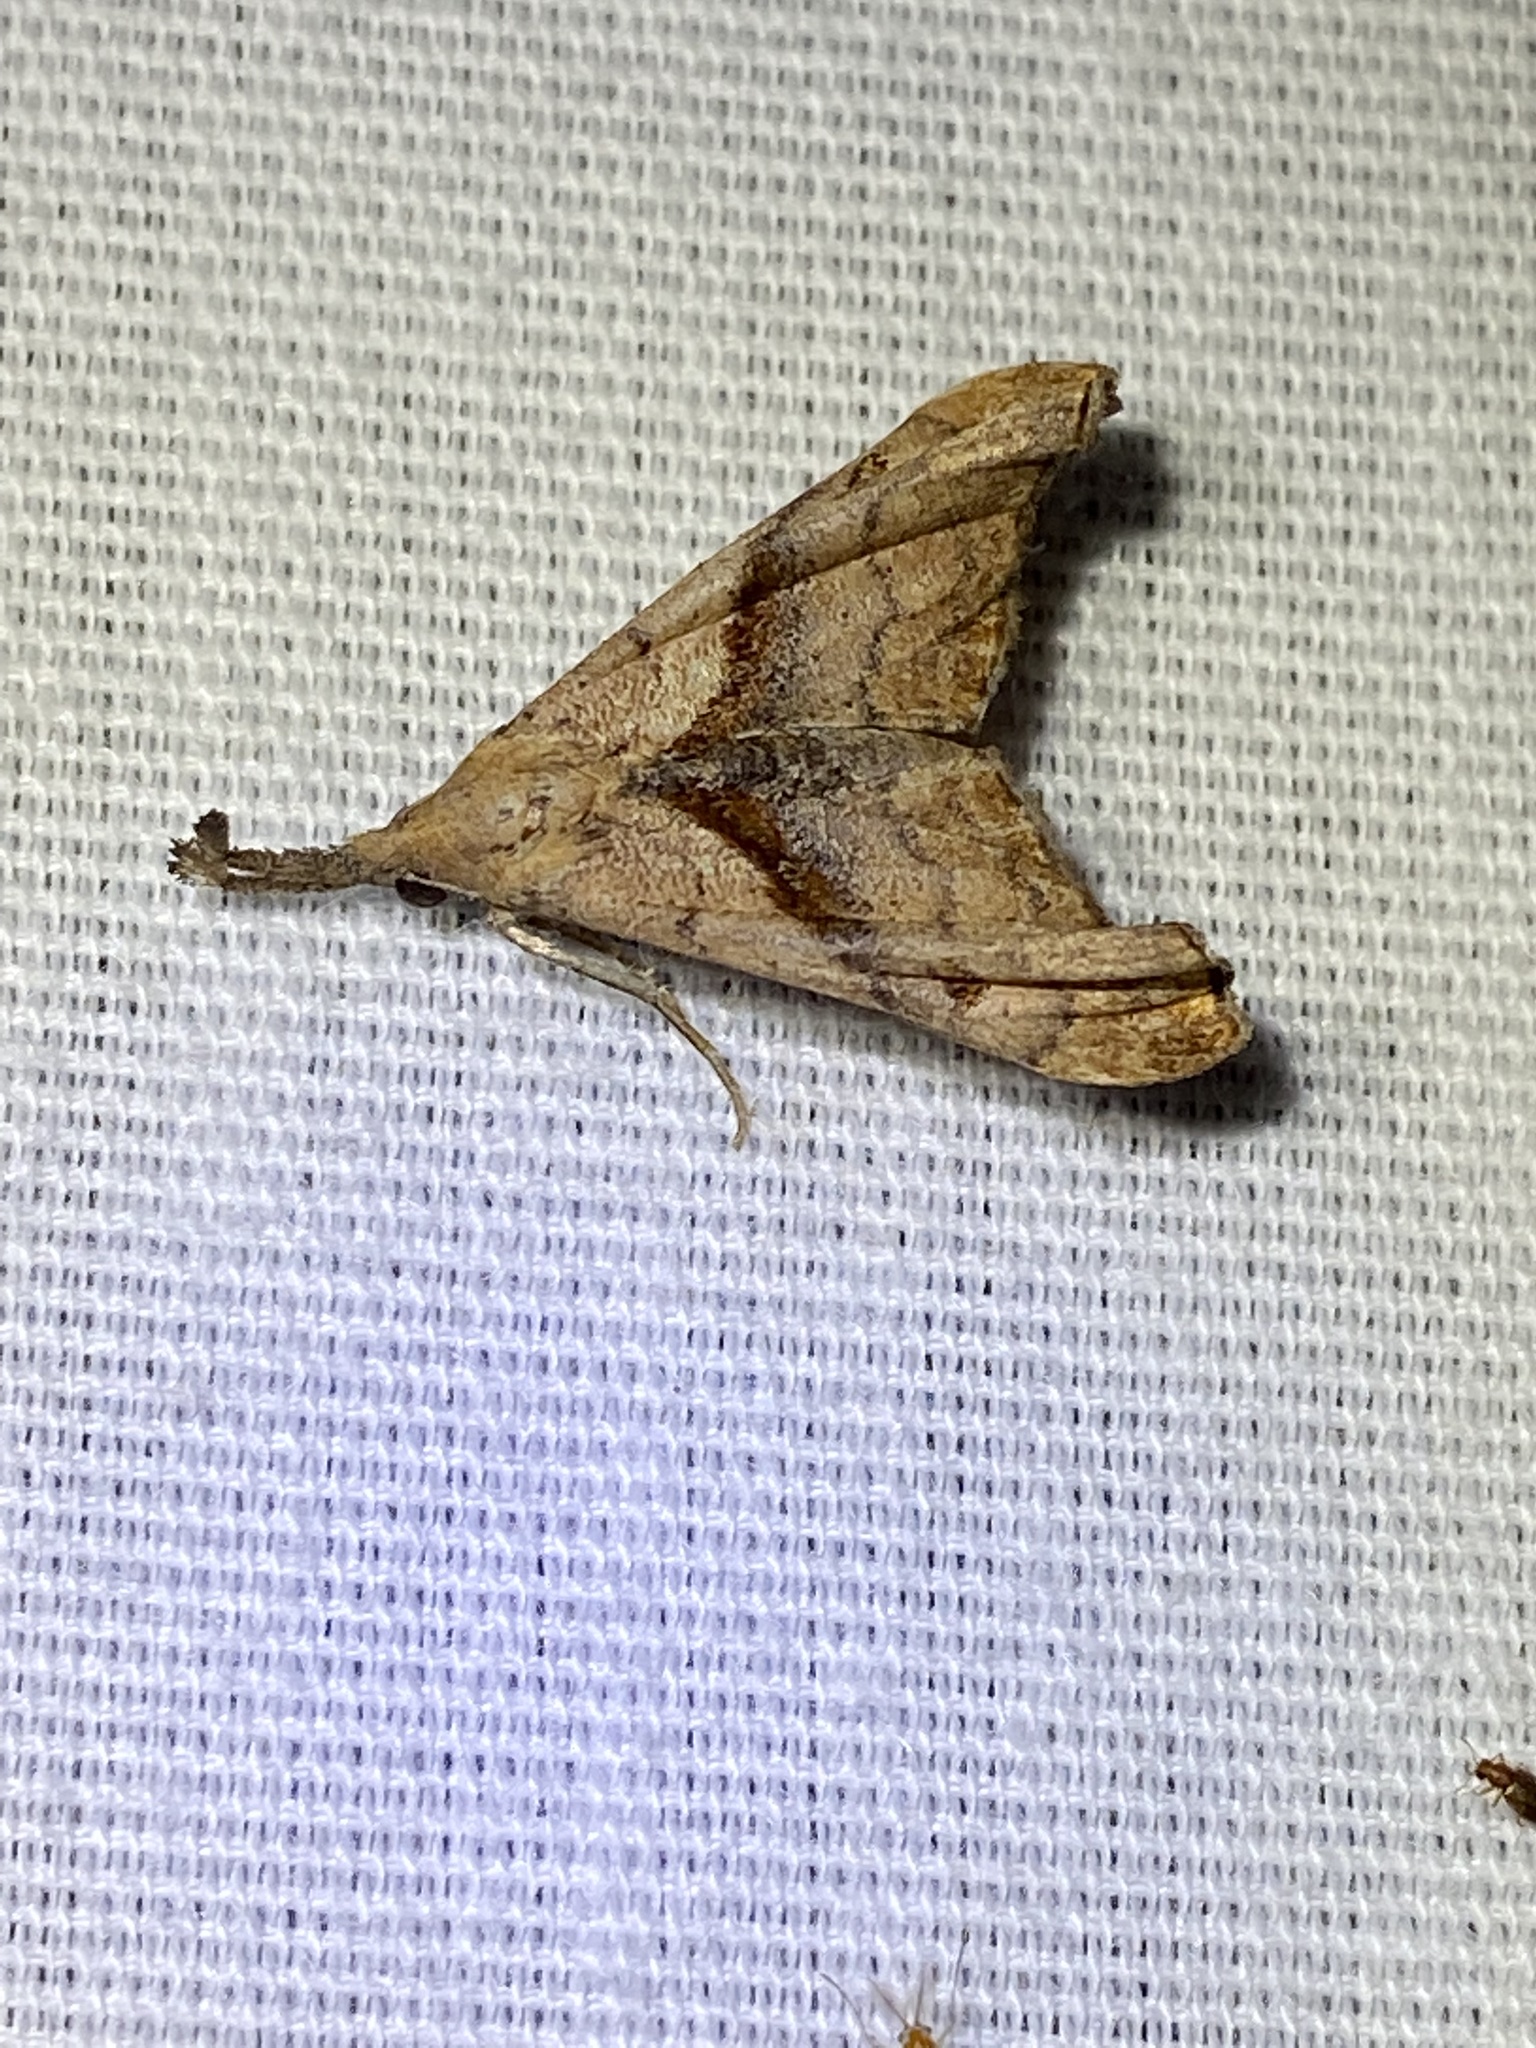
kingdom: Animalia
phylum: Arthropoda
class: Insecta
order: Lepidoptera
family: Erebidae
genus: Palthis
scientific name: Palthis angulalis
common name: Dark-spotted palthis moth
